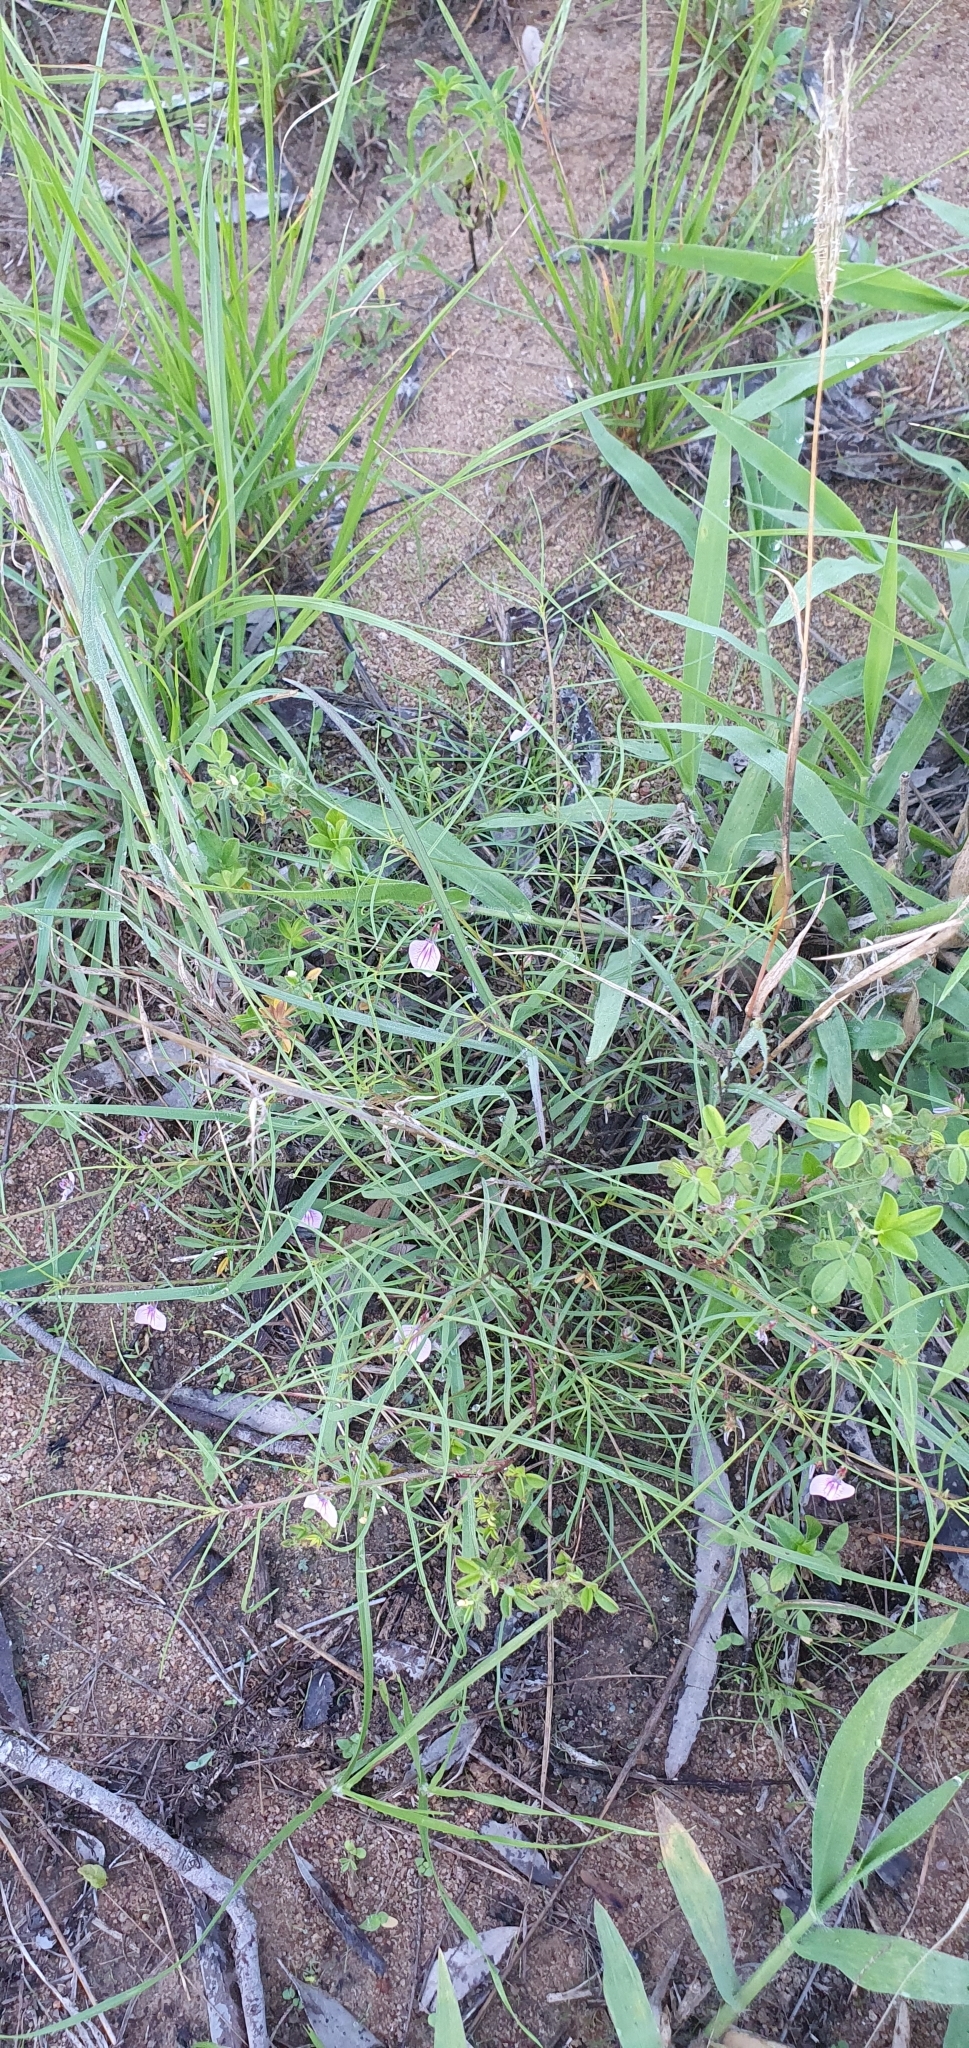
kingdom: Plantae
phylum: Tracheophyta
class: Magnoliopsida
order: Malpighiales
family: Violaceae
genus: Pigea
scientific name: Pigea enneasperma
